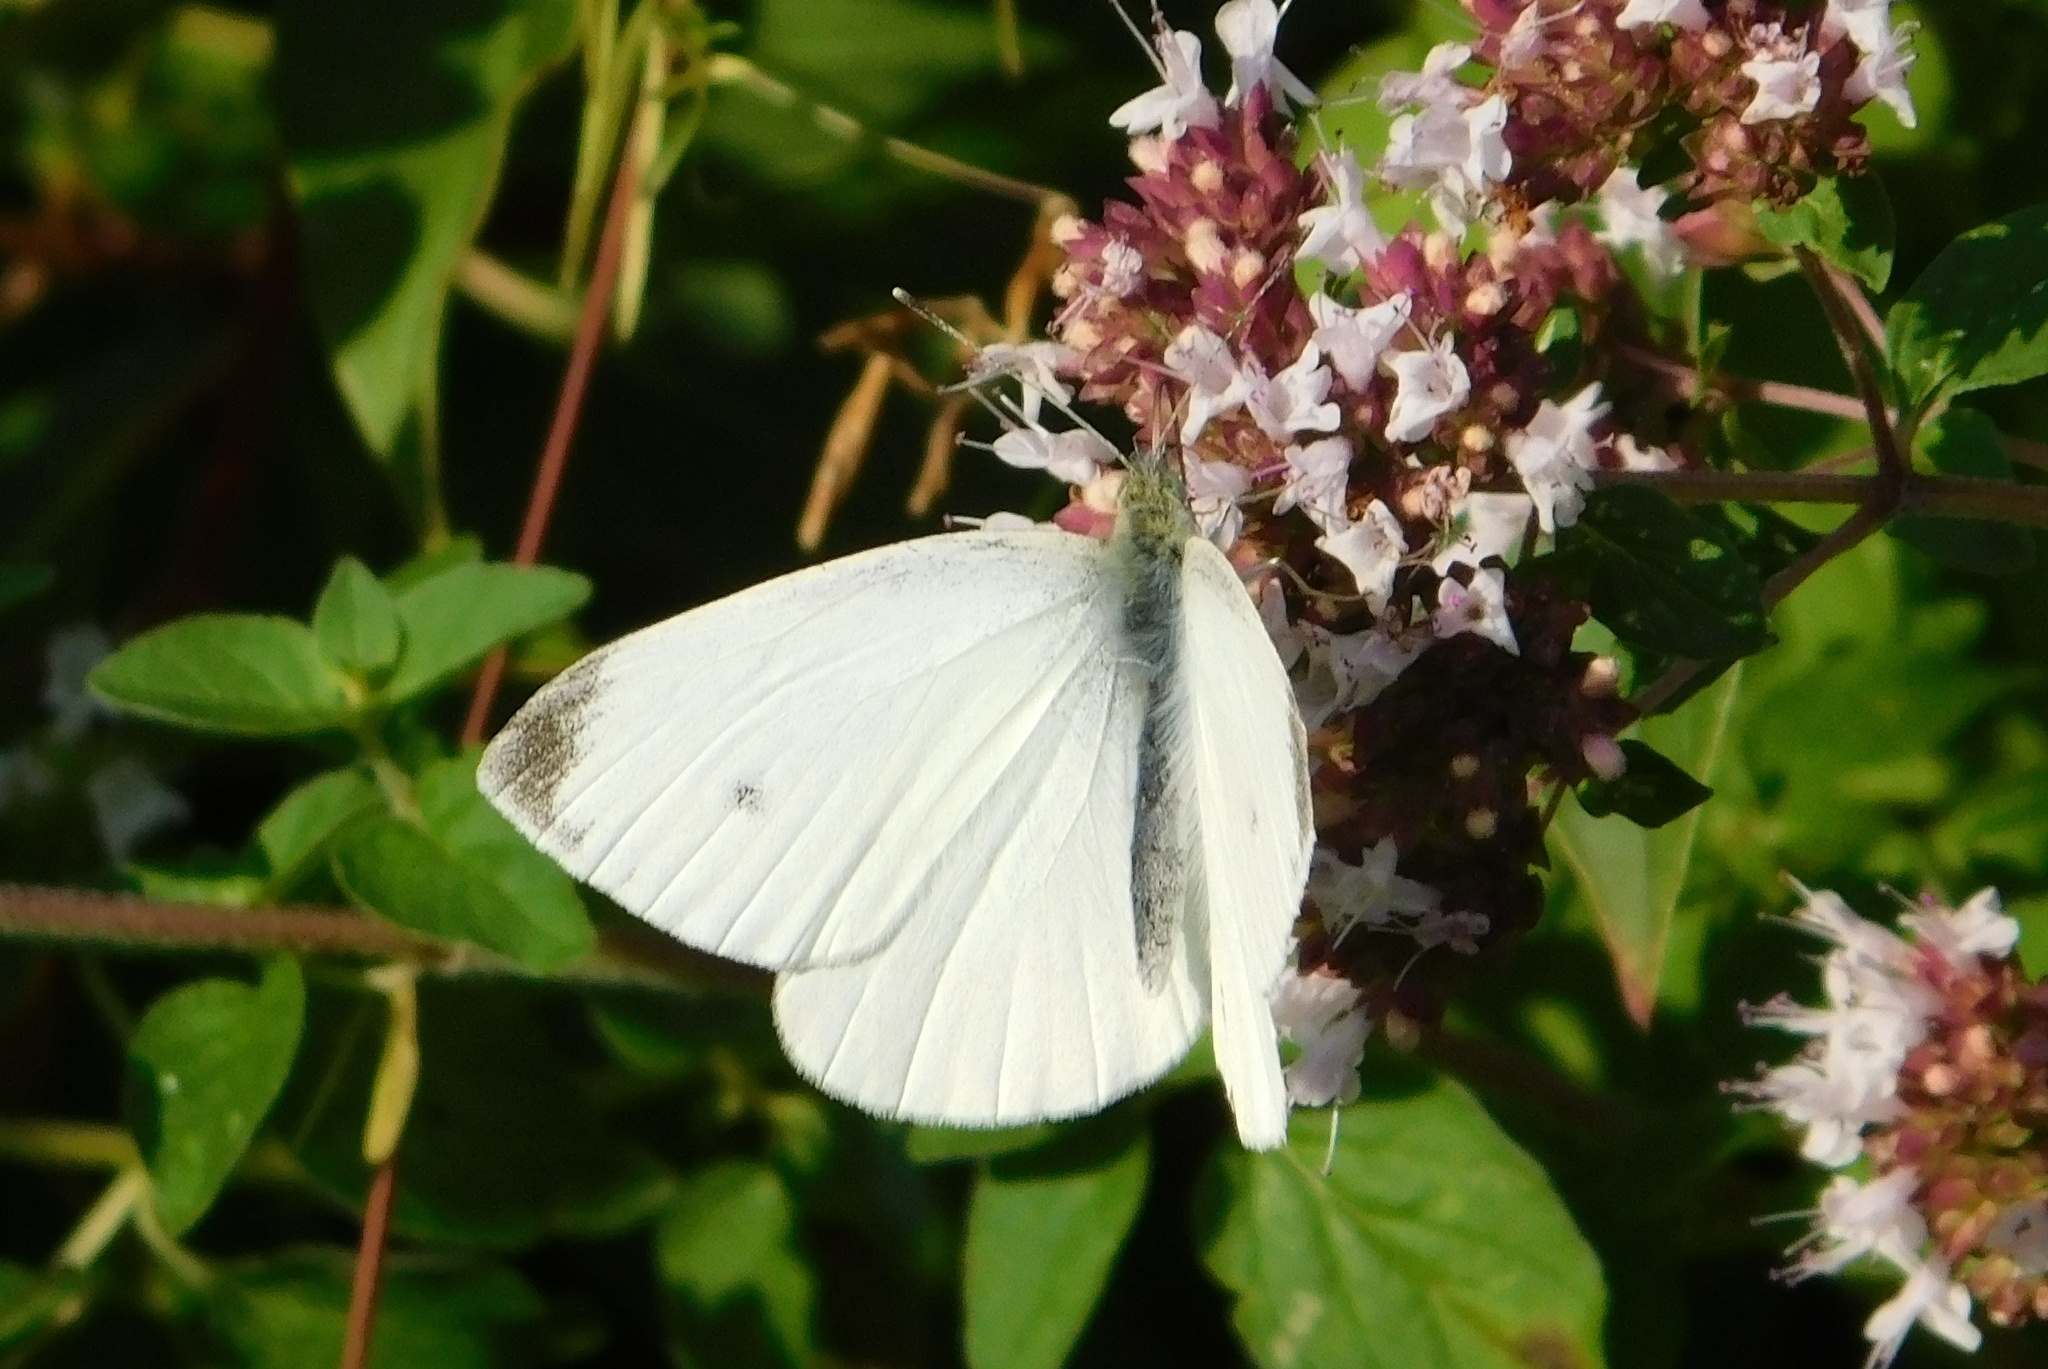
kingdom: Animalia
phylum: Arthropoda
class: Insecta
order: Lepidoptera
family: Pieridae
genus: Pieris
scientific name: Pieris rapae
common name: Small white
